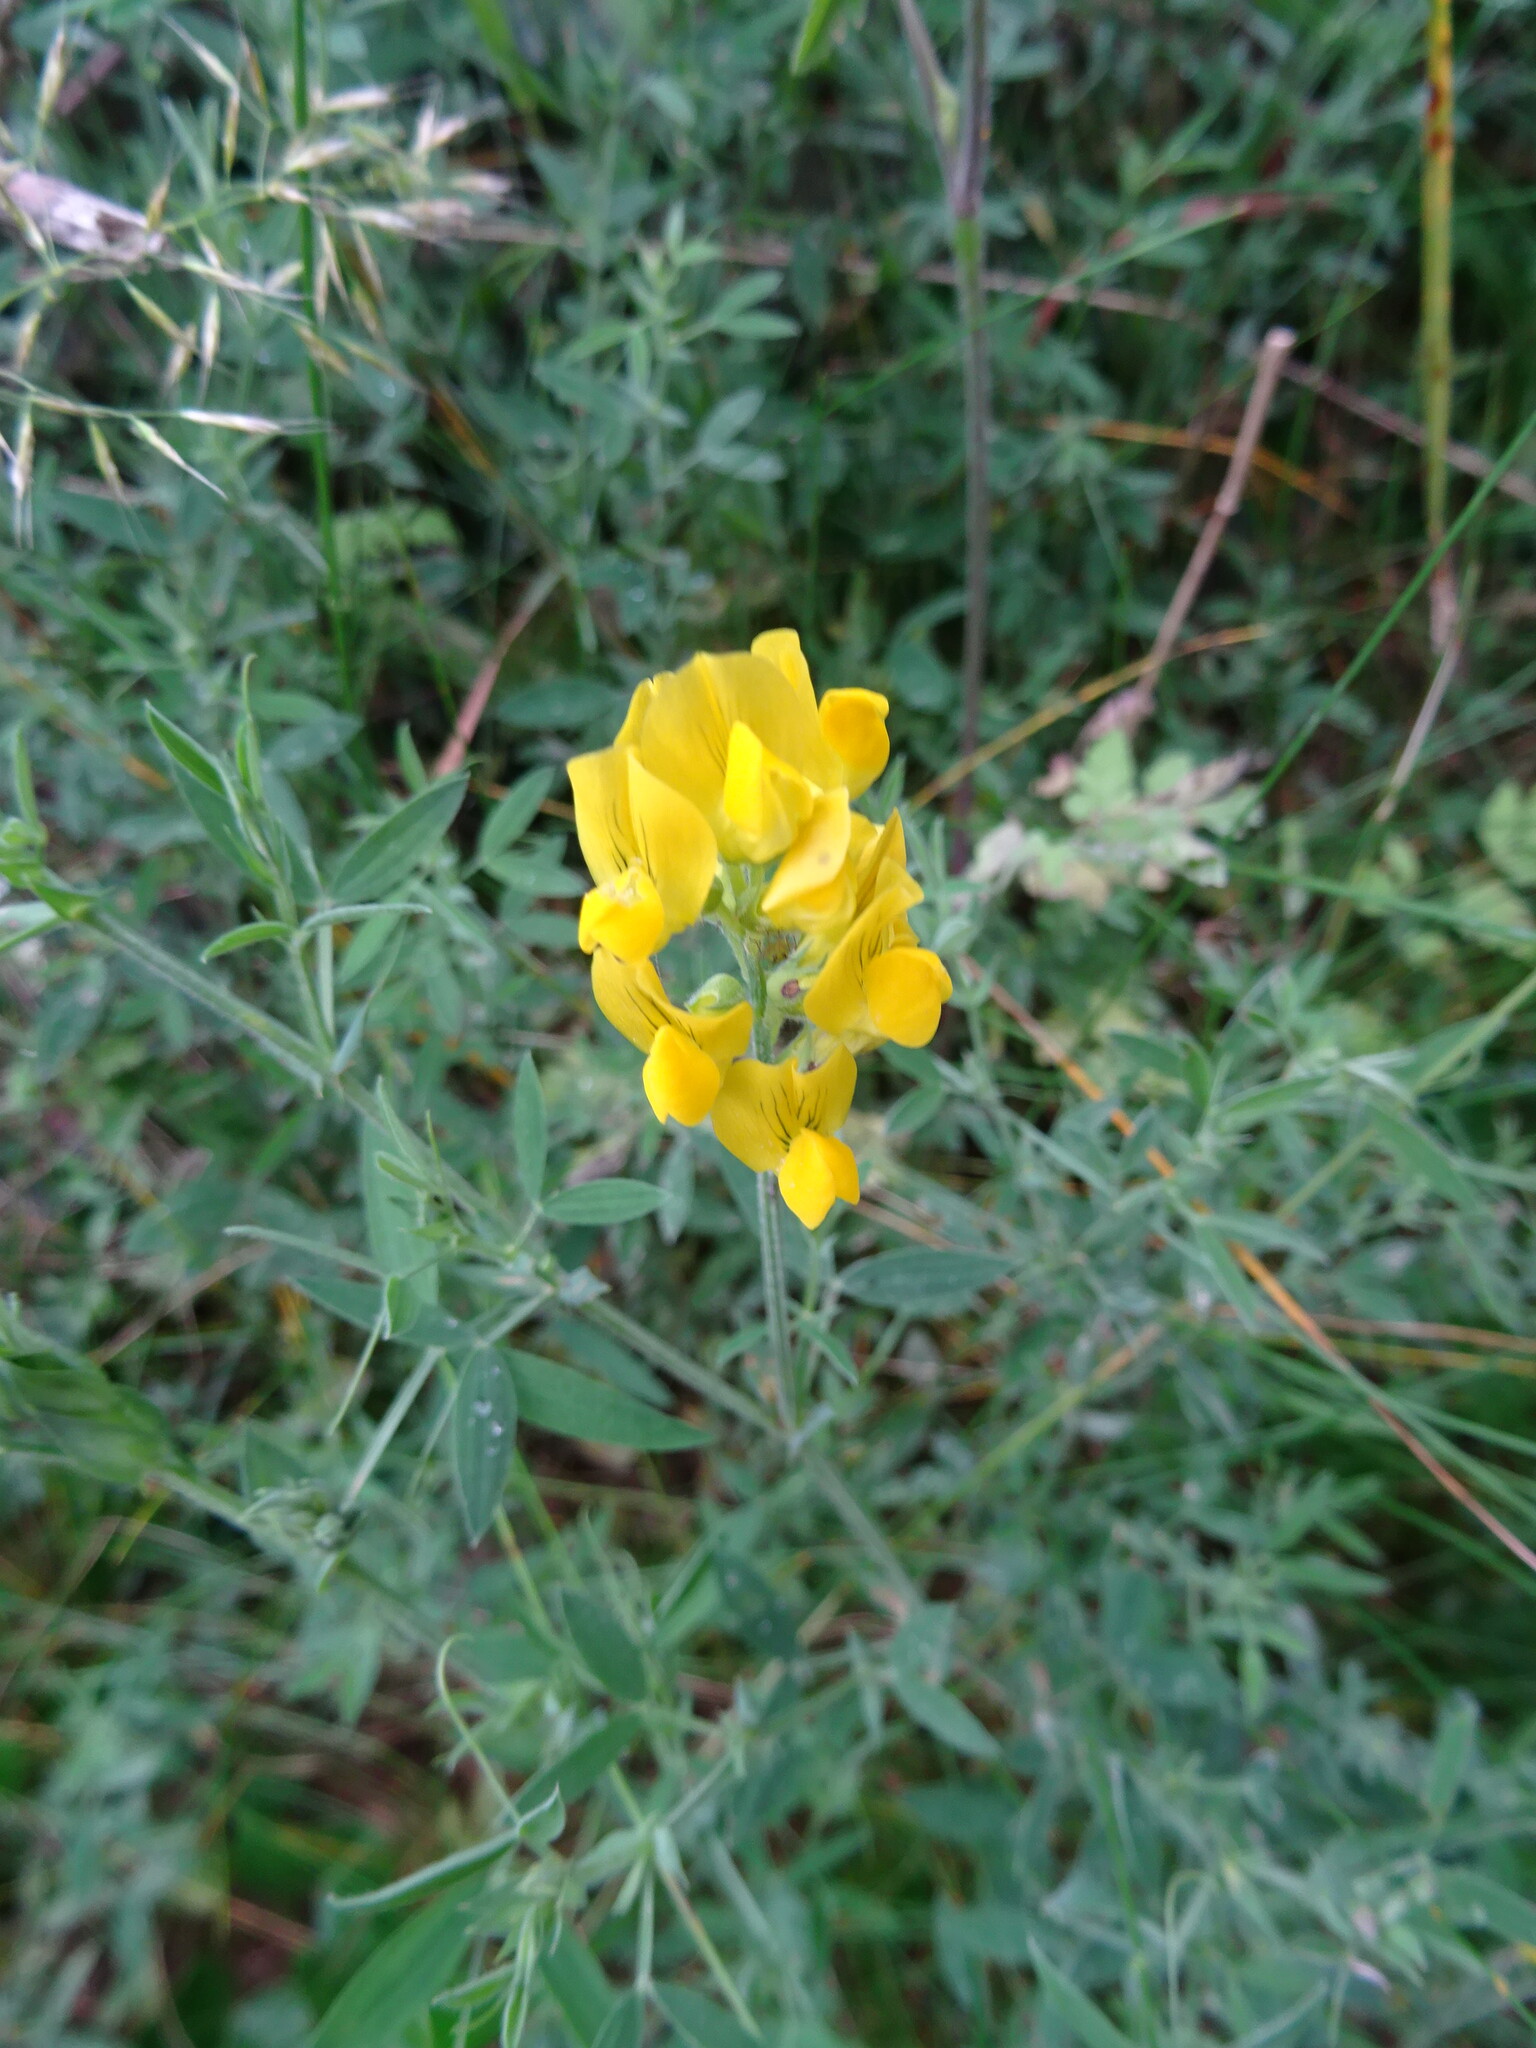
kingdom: Plantae
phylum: Tracheophyta
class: Magnoliopsida
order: Fabales
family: Fabaceae
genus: Lathyrus
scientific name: Lathyrus pratensis
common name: Meadow vetchling
